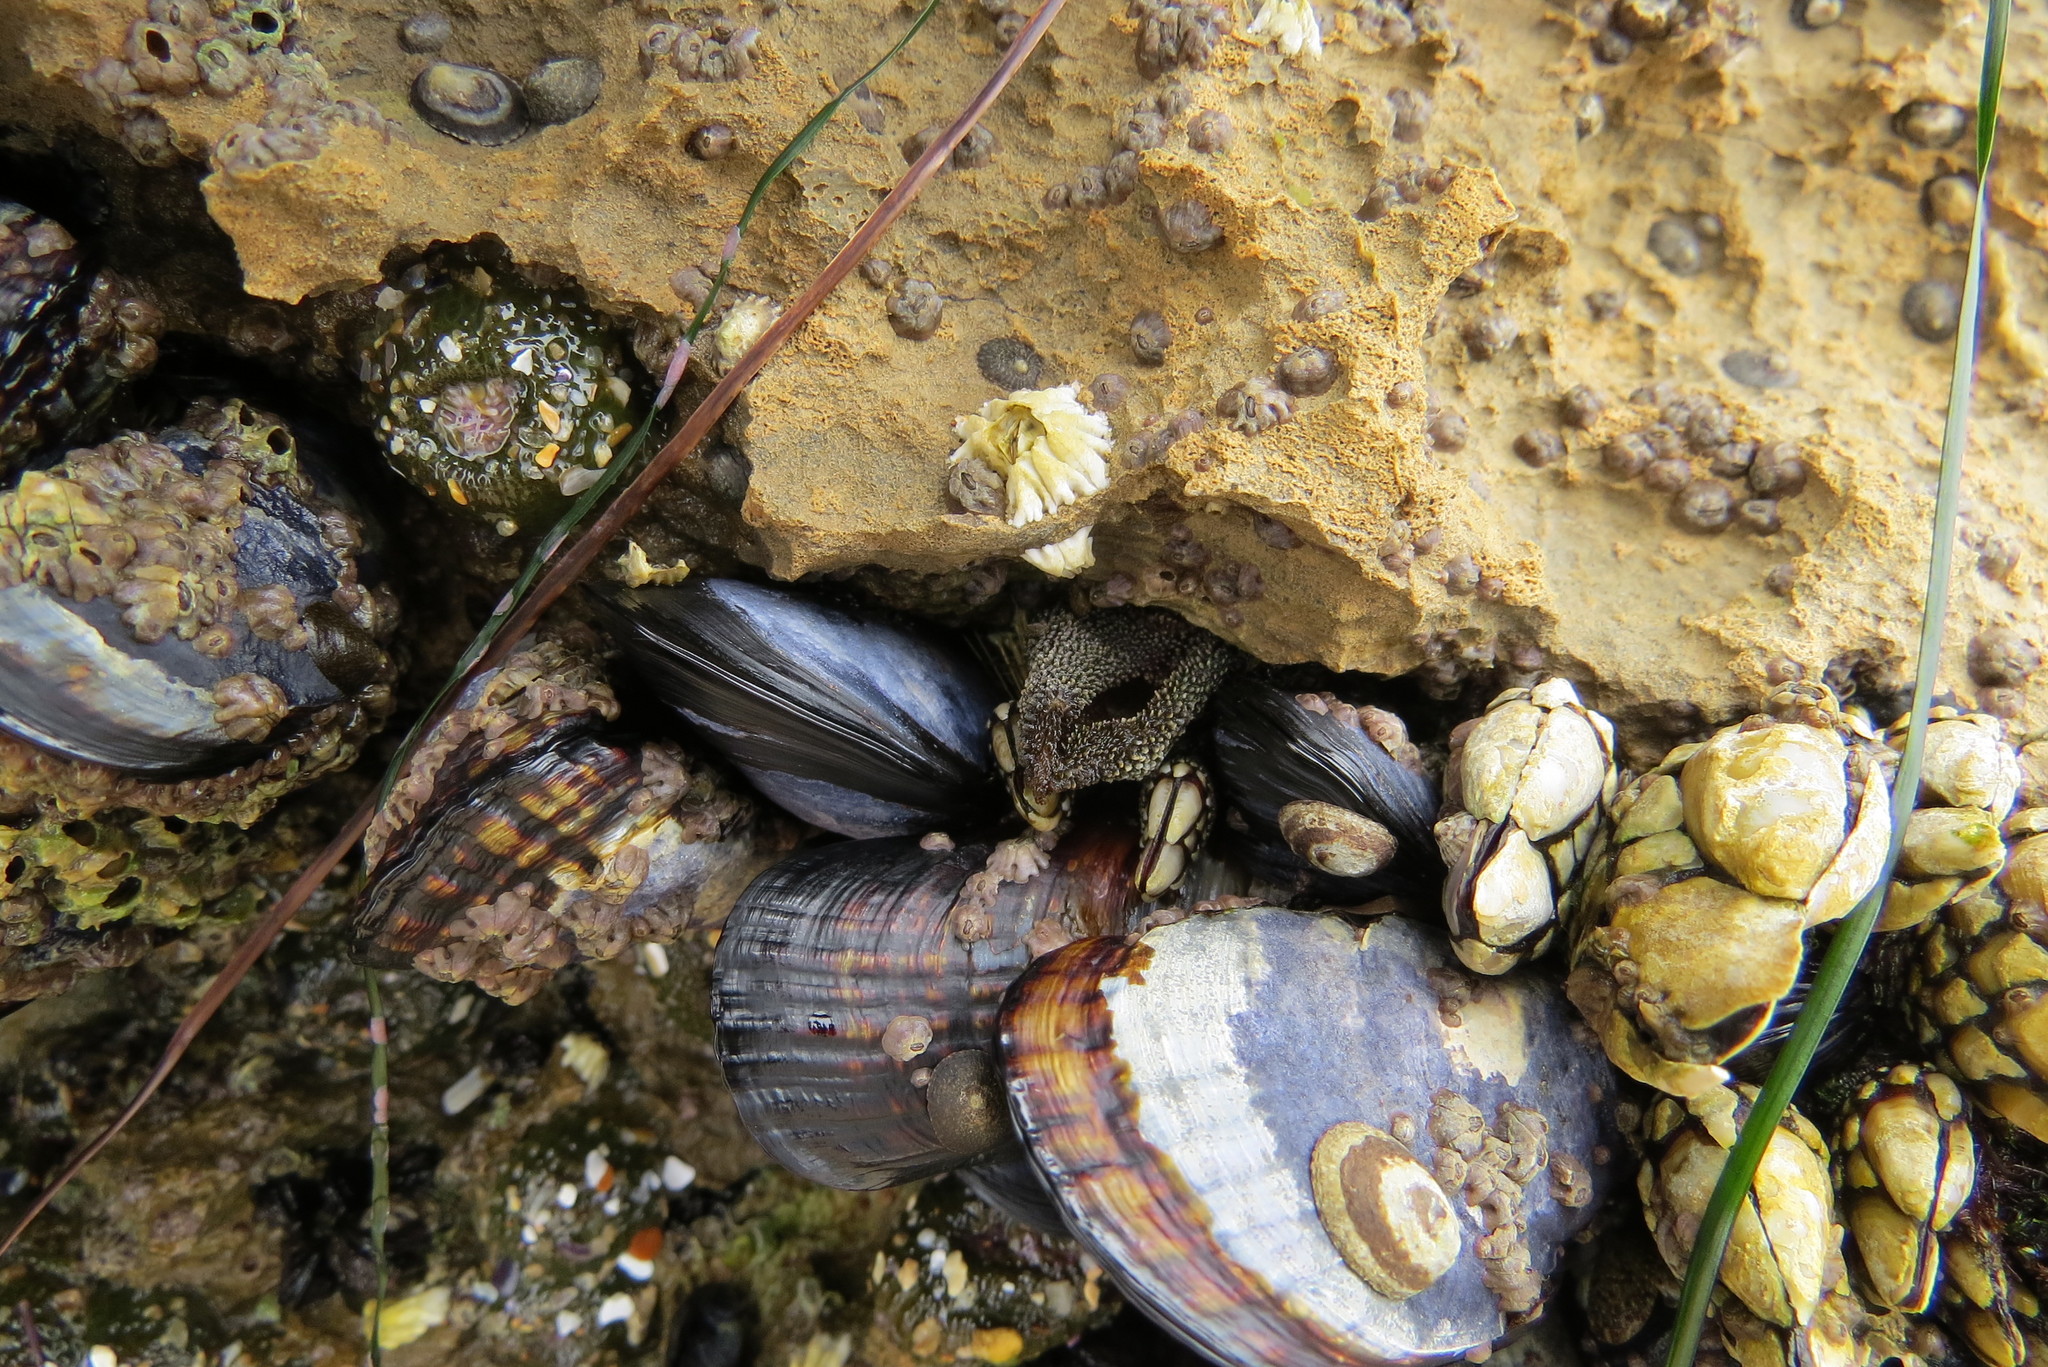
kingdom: Animalia
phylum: Arthropoda
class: Maxillopoda
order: Pedunculata
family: Pollicipedidae
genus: Pollicipes
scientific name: Pollicipes polymerus
